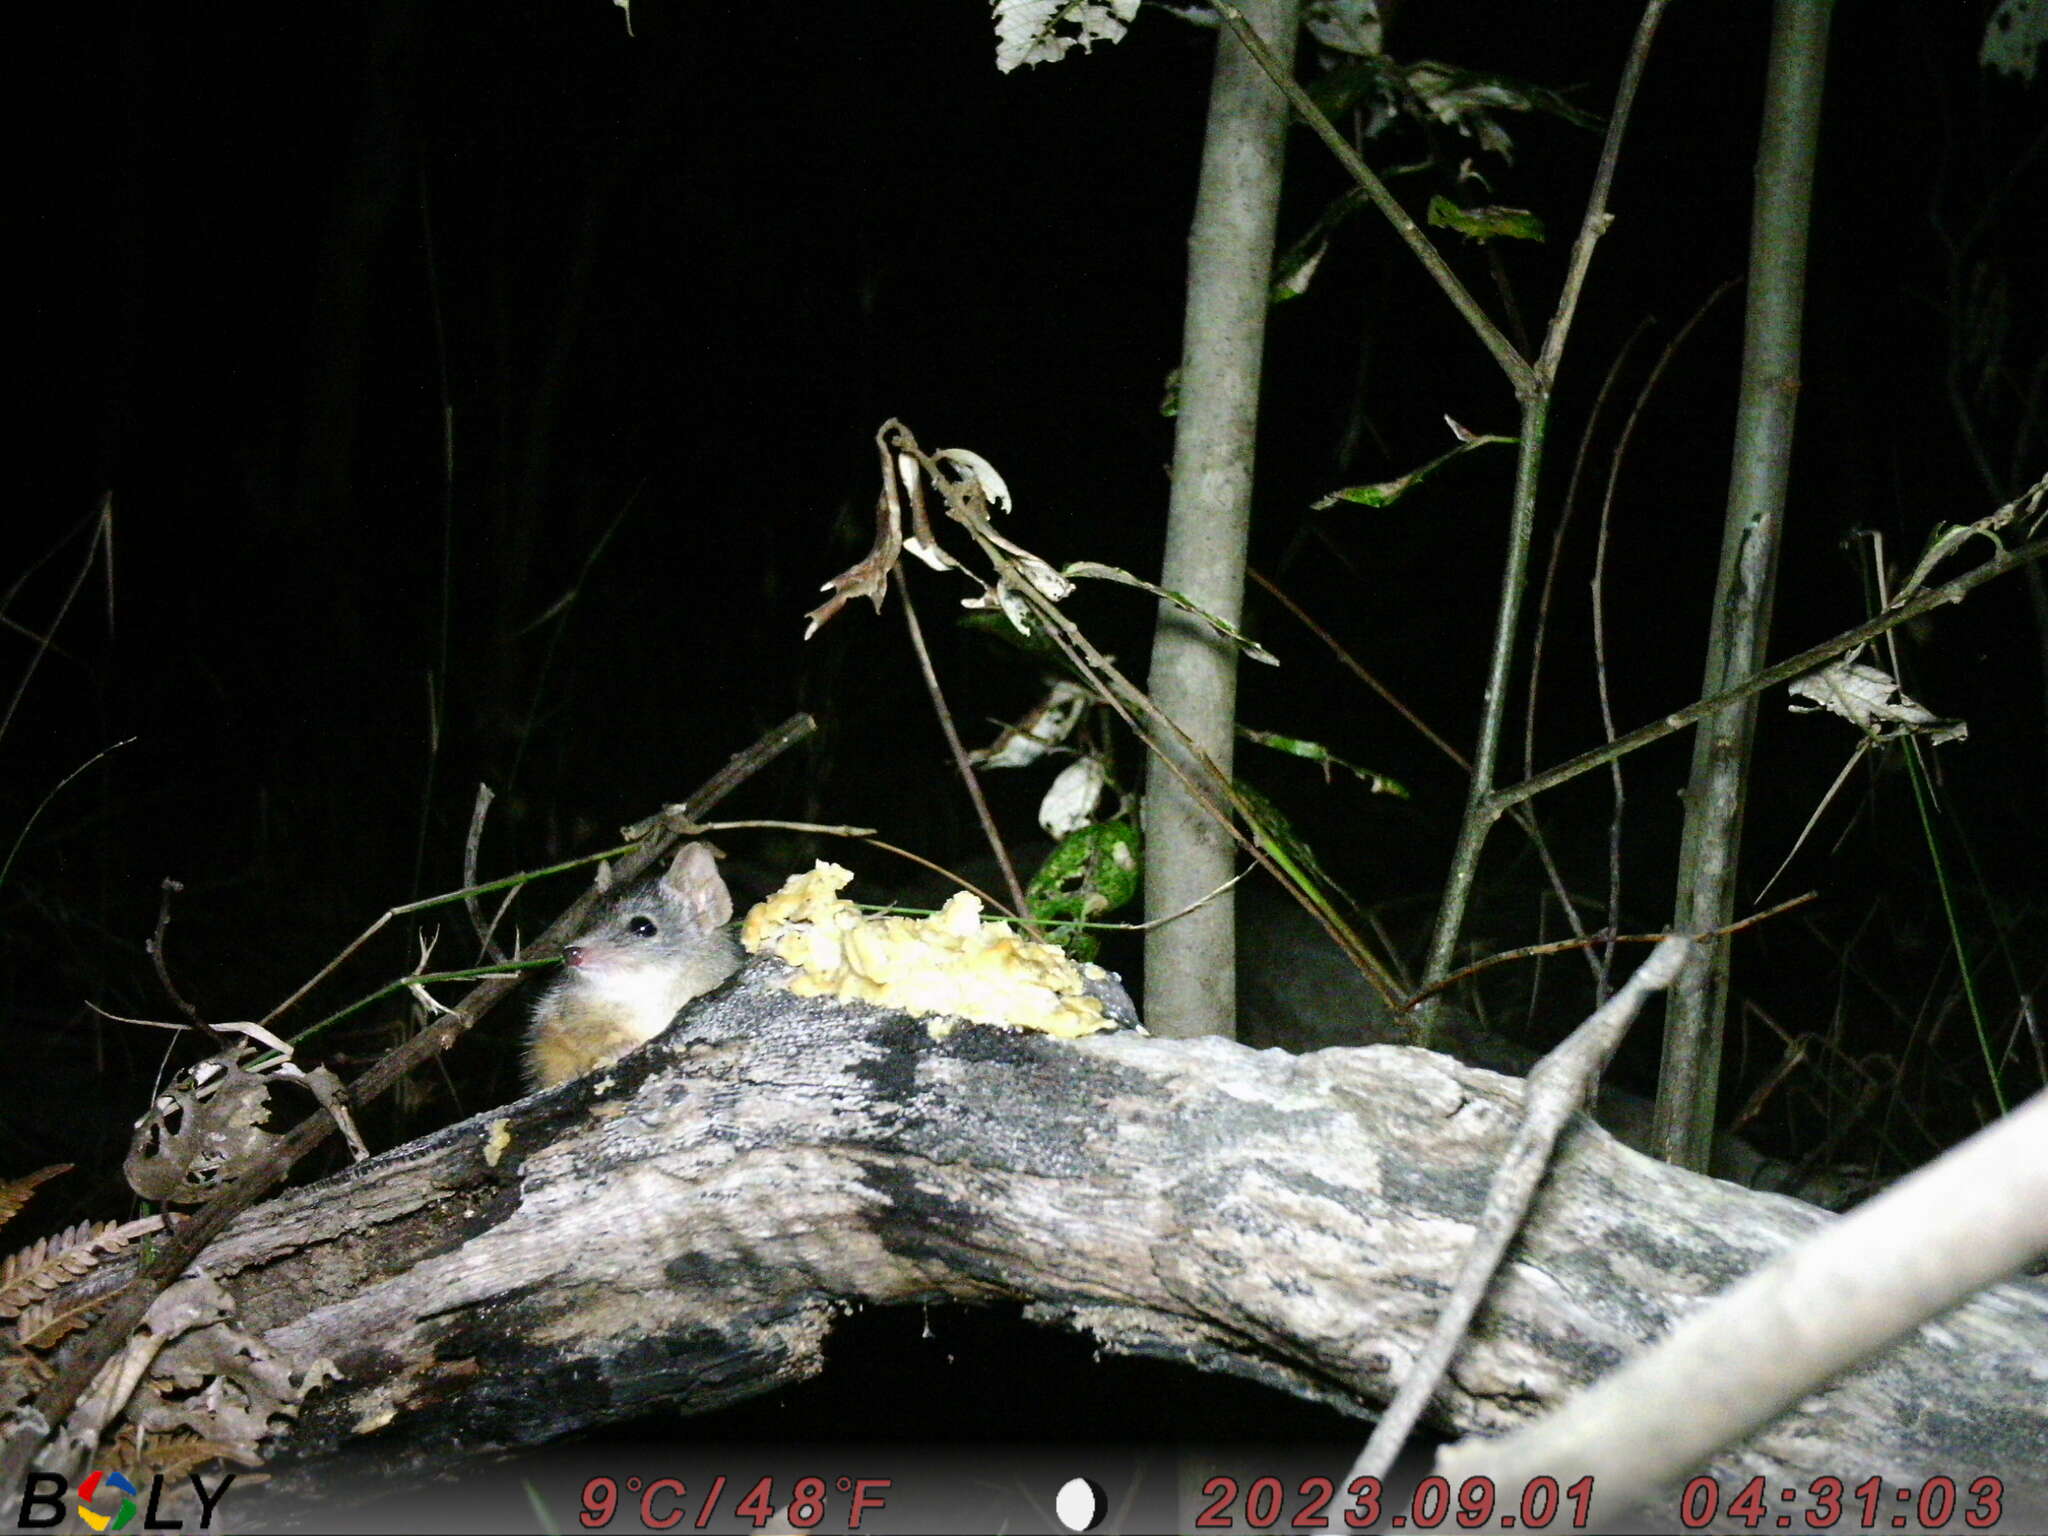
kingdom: Animalia
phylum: Chordata
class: Mammalia
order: Dasyuromorphia
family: Dasyuridae
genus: Antechinus
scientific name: Antechinus flavipes
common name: Yellow-footed antechinus
